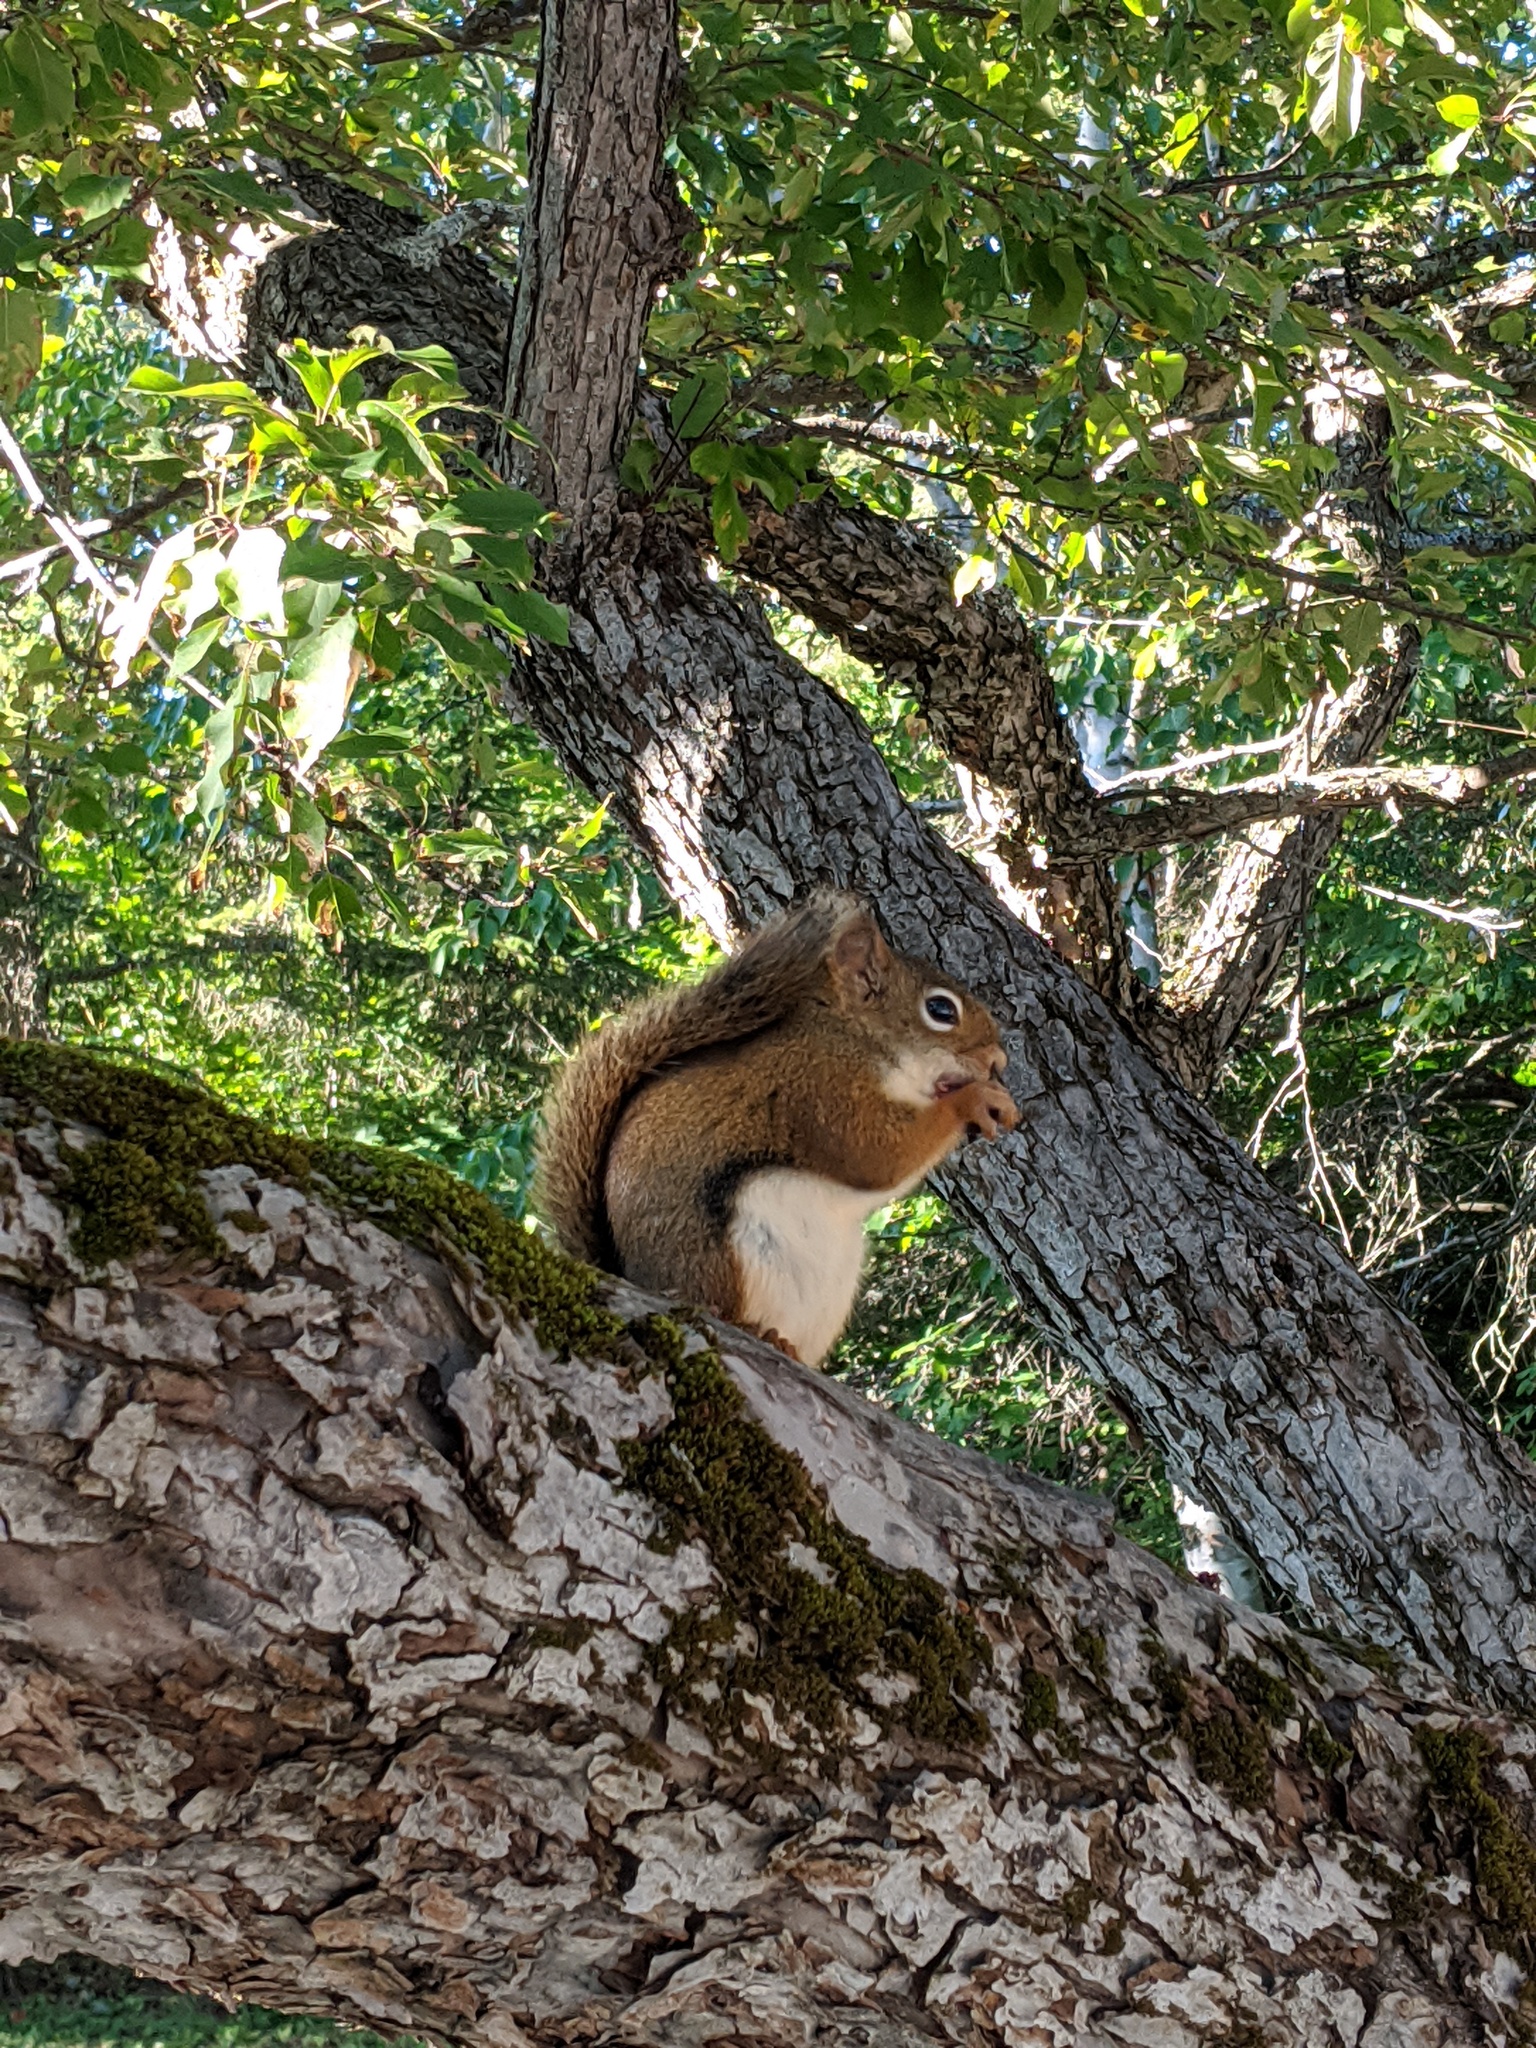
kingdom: Animalia
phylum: Chordata
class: Mammalia
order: Rodentia
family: Sciuridae
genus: Tamiasciurus
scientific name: Tamiasciurus hudsonicus
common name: Red squirrel
